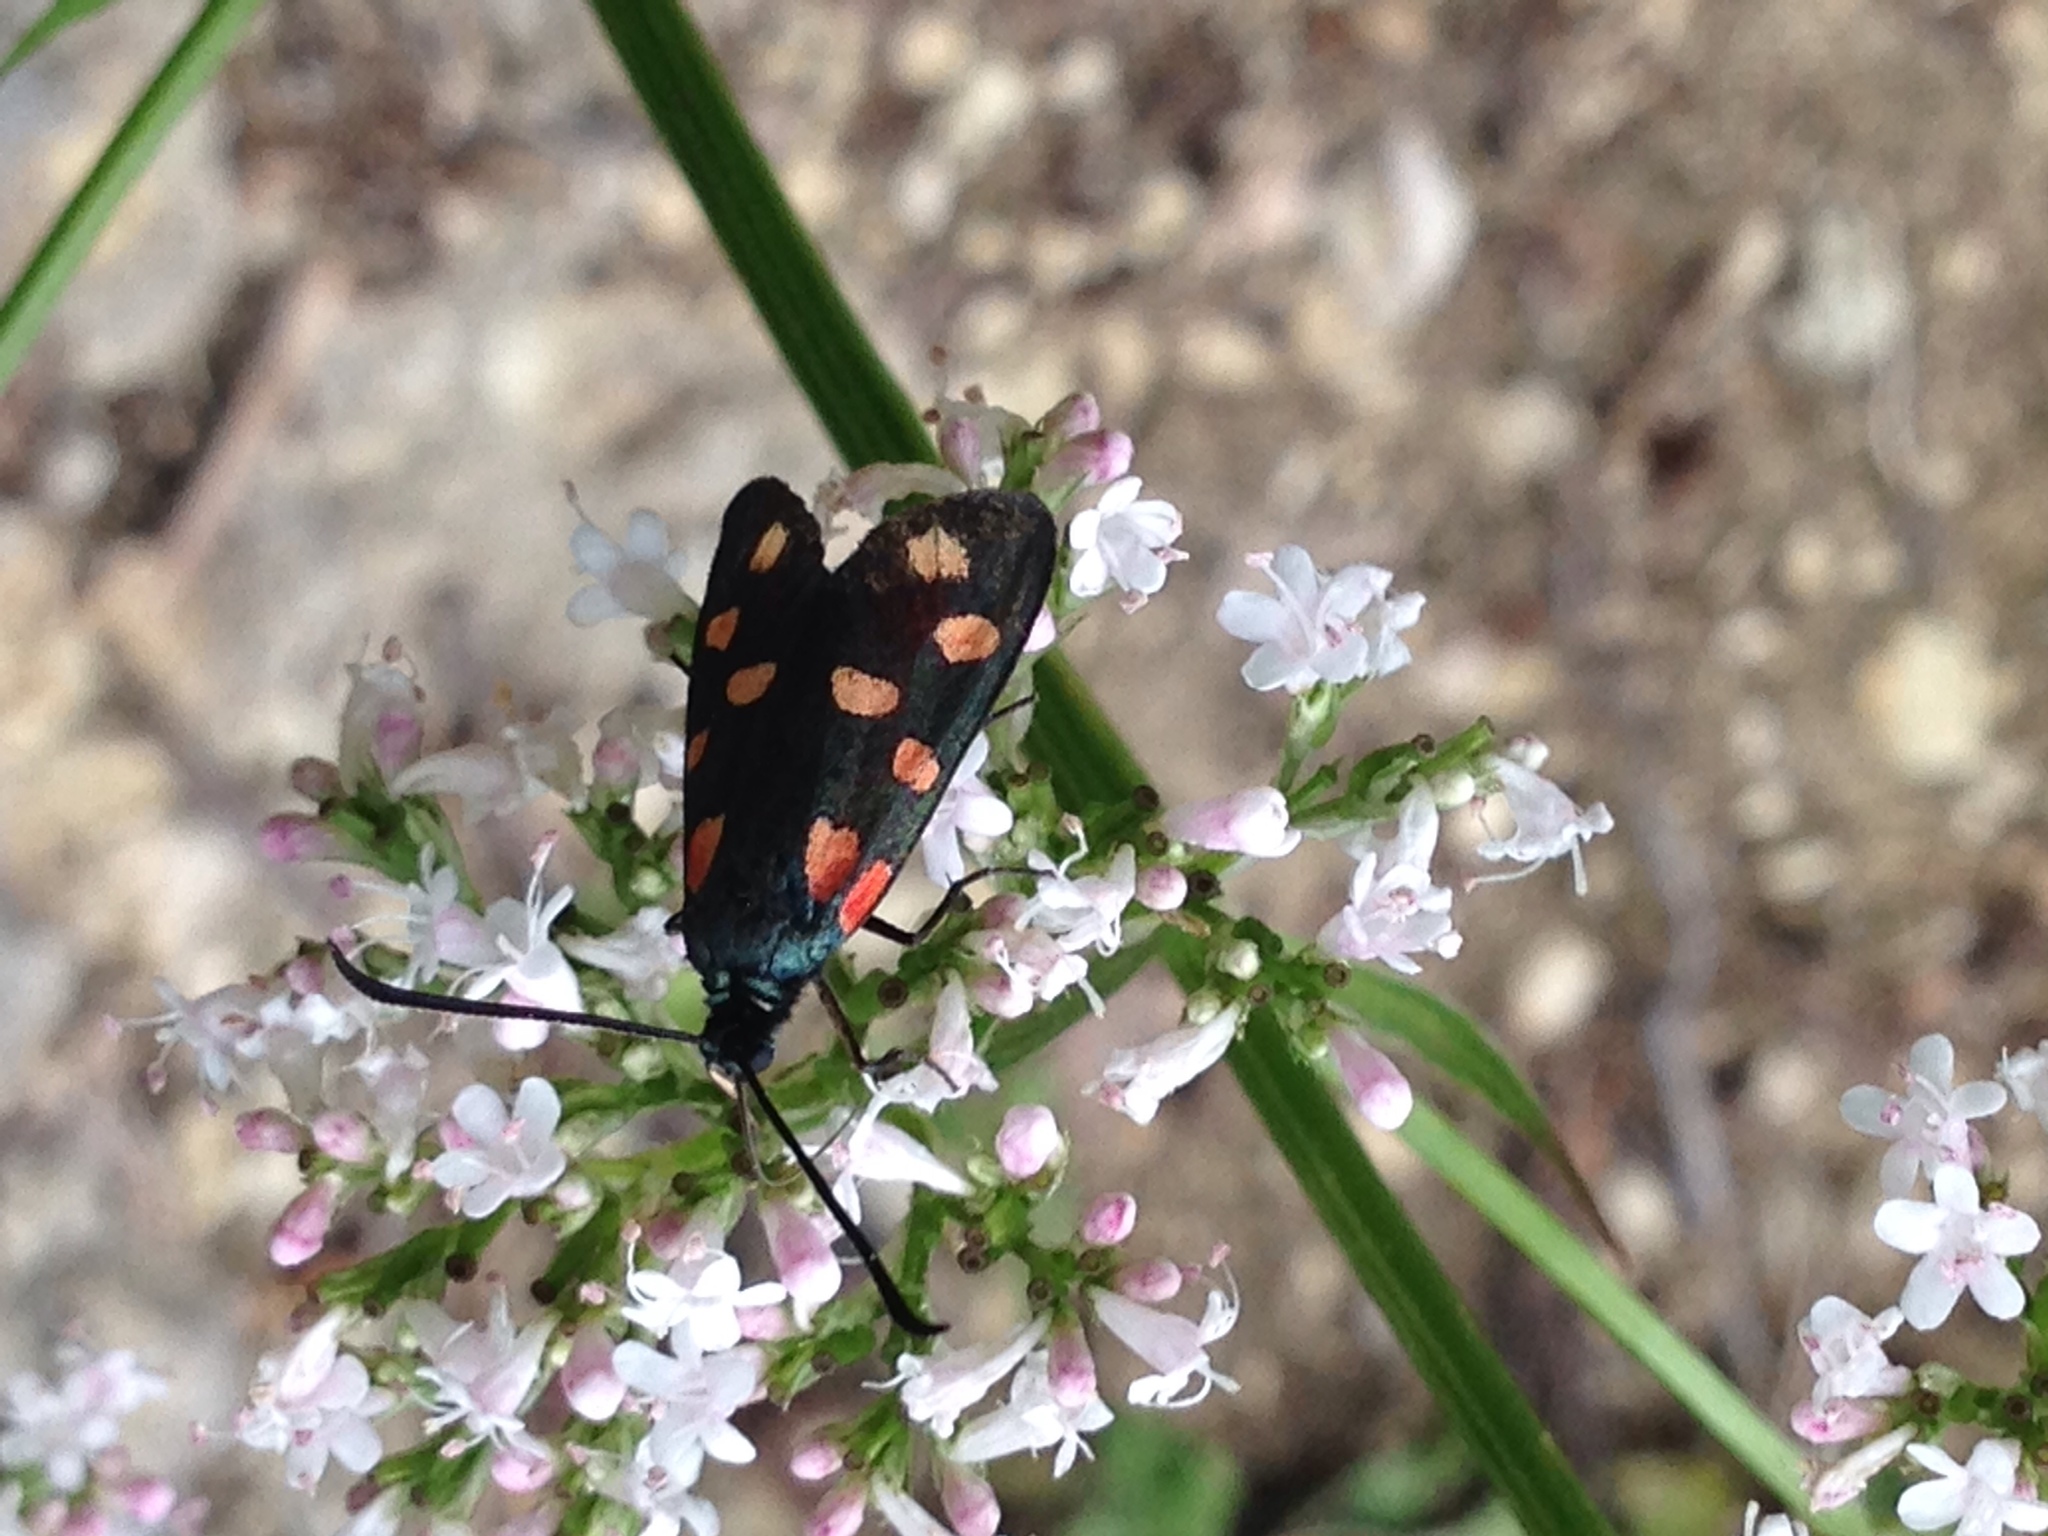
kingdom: Animalia
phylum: Arthropoda
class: Insecta
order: Lepidoptera
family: Zygaenidae
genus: Zygaena
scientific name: Zygaena transalpina
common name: Southern six spot burnet
